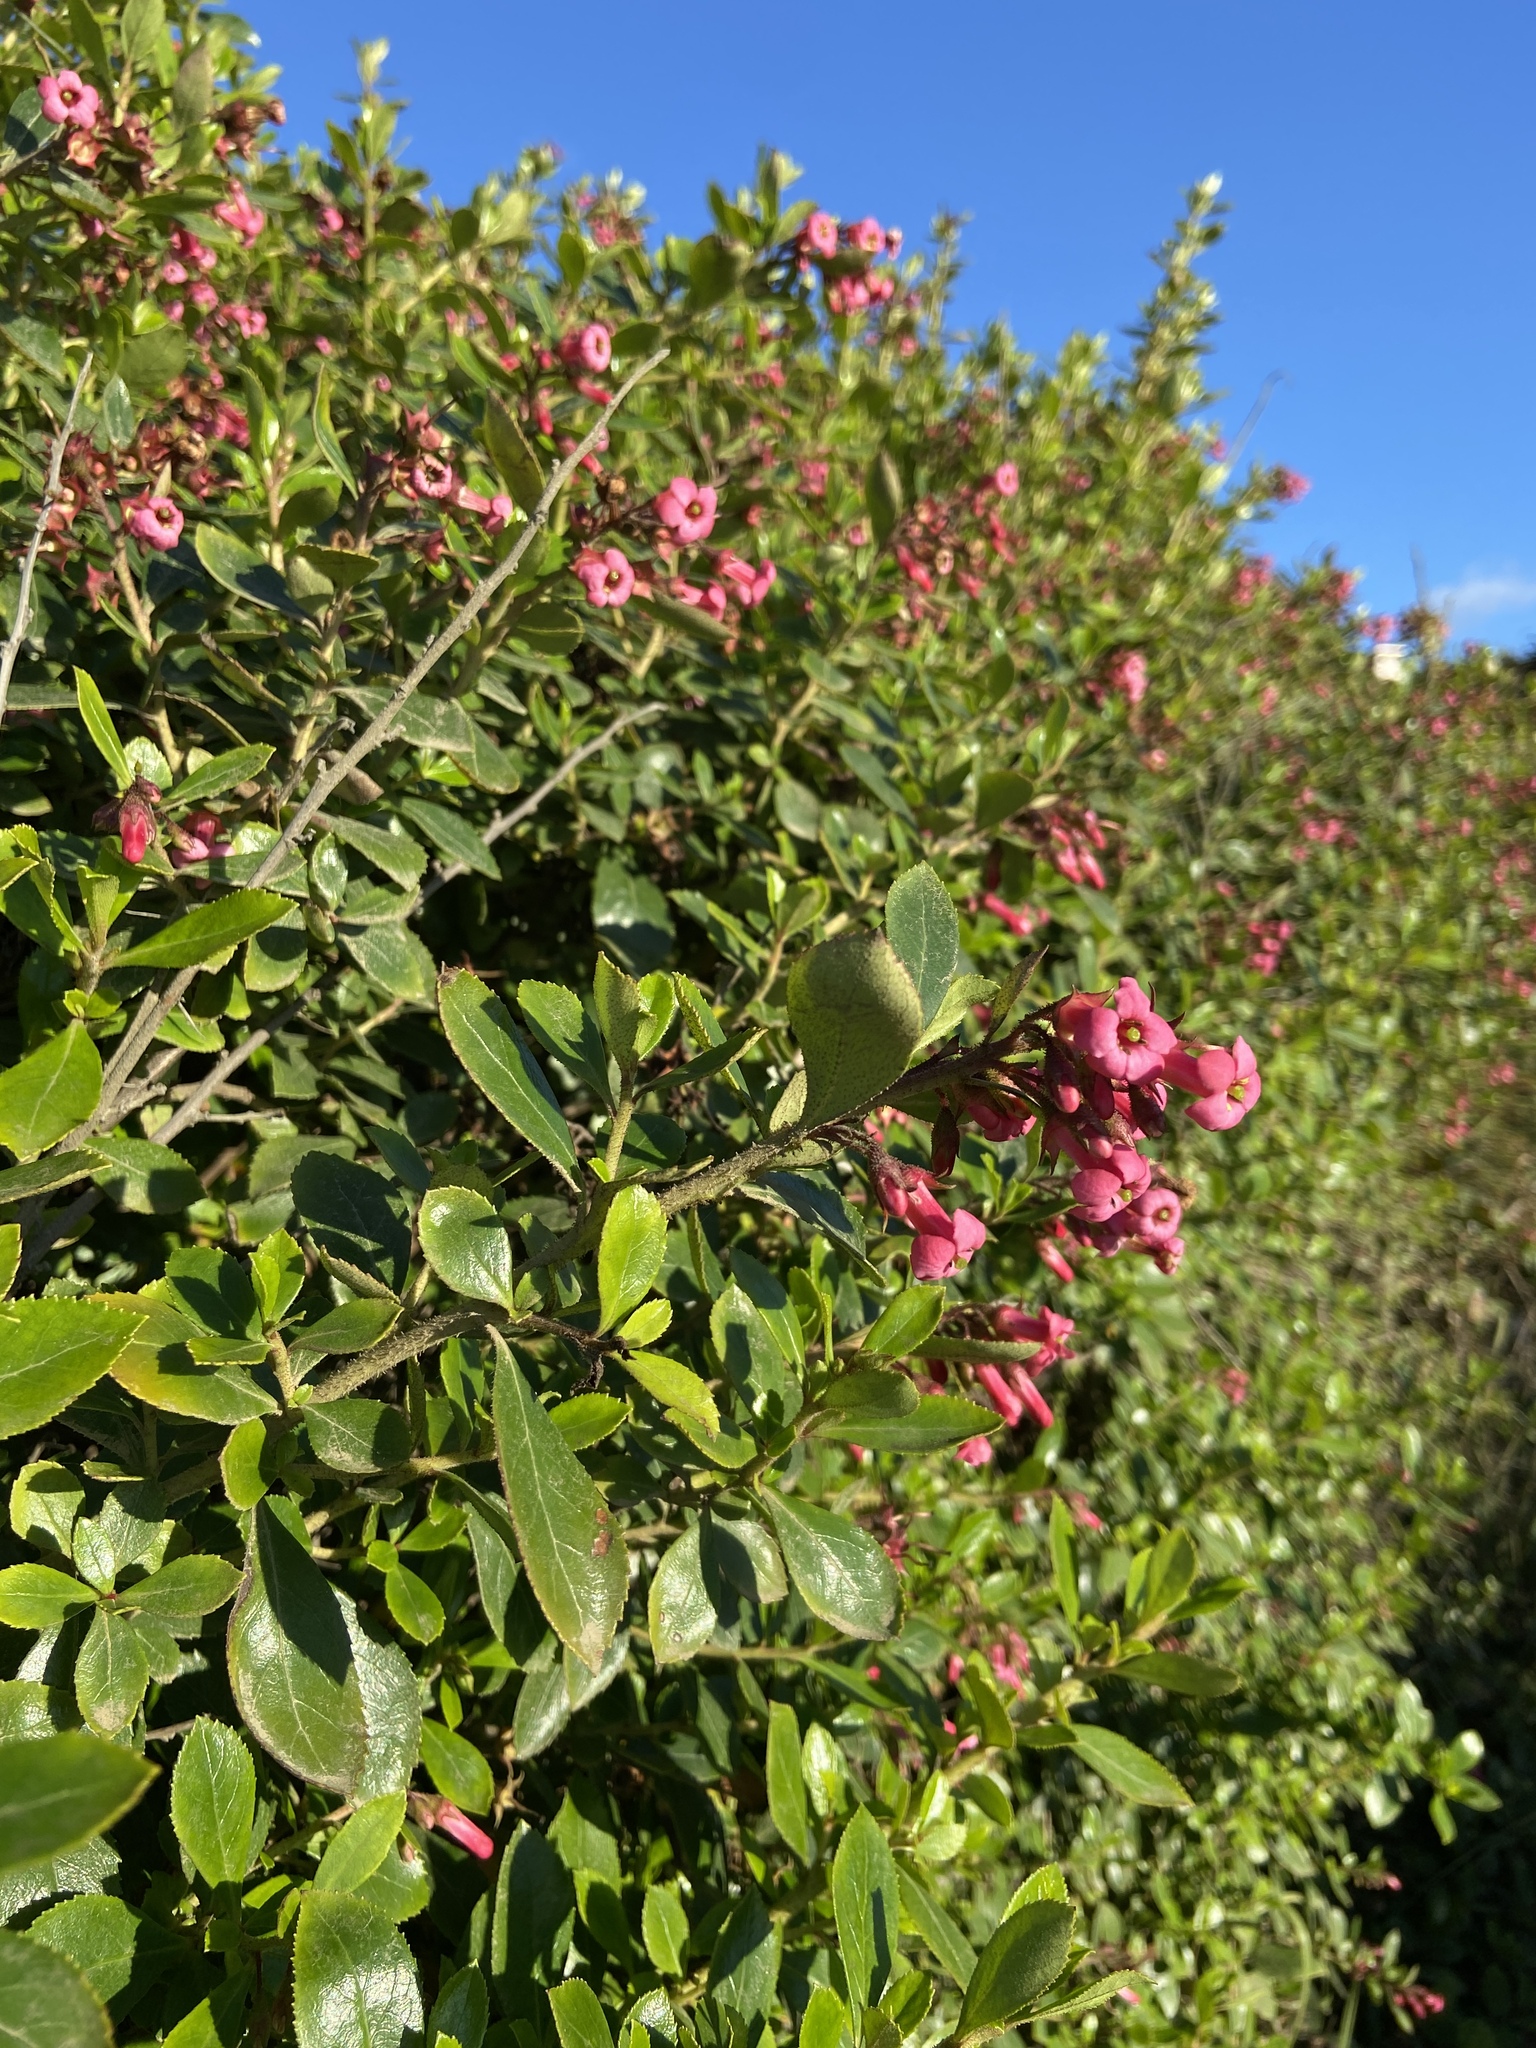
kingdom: Plantae
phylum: Tracheophyta
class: Magnoliopsida
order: Escalloniales
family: Escalloniaceae
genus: Escallonia
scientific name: Escallonia rubra
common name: Redclaws
